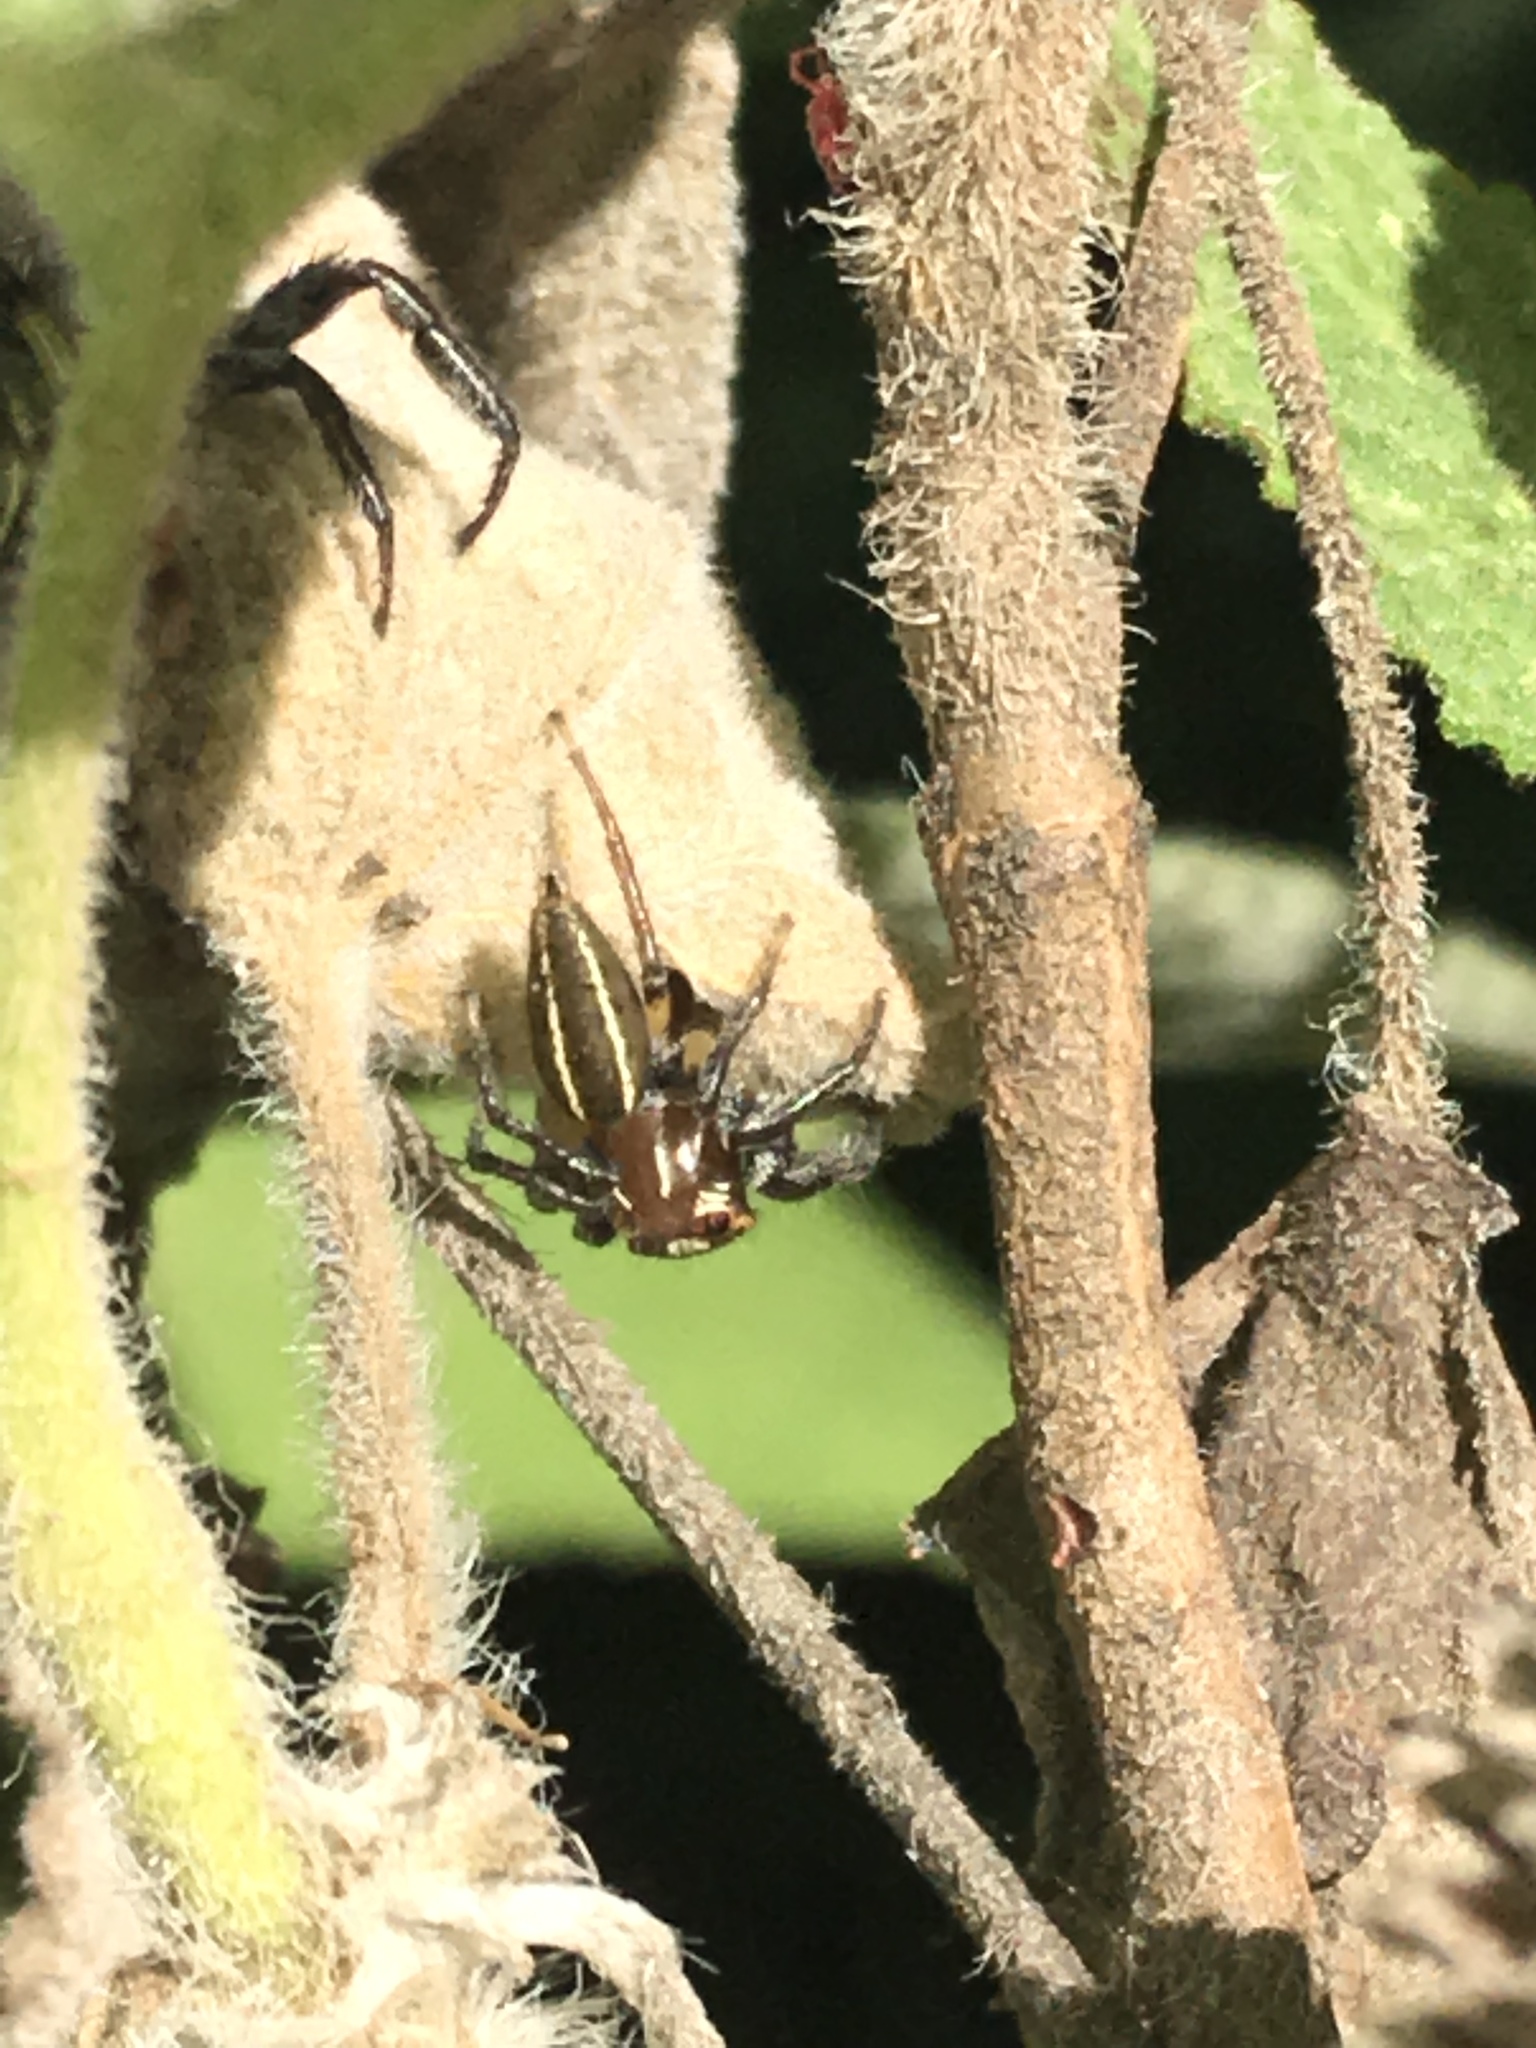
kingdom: Animalia
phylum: Arthropoda
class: Arachnida
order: Araneae
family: Salticidae
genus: Colonus
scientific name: Colonus sylvanus
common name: Jumping spiders
